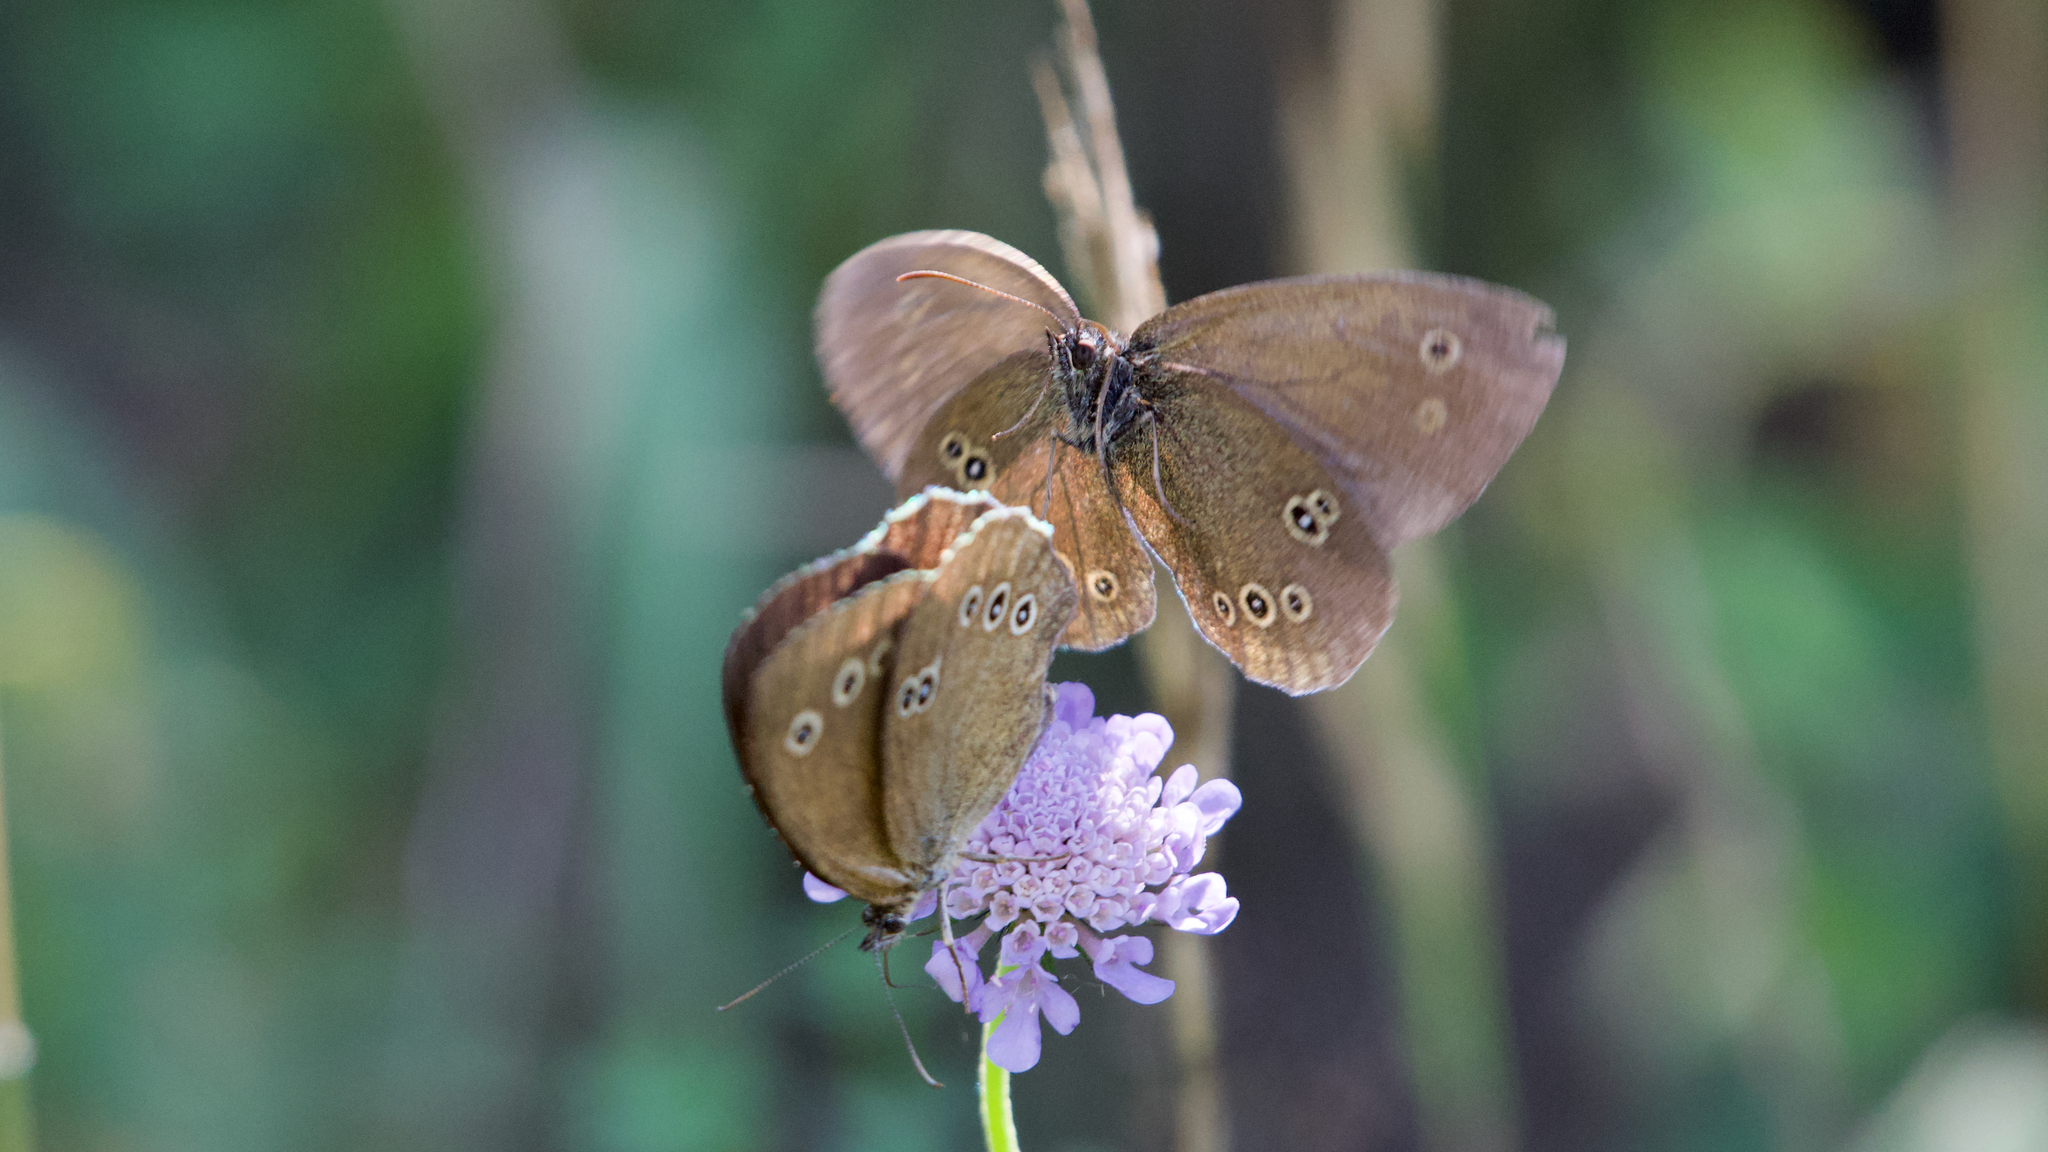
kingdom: Animalia
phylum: Arthropoda
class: Insecta
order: Lepidoptera
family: Nymphalidae
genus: Aphantopus
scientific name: Aphantopus hyperantus
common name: Ringlet
